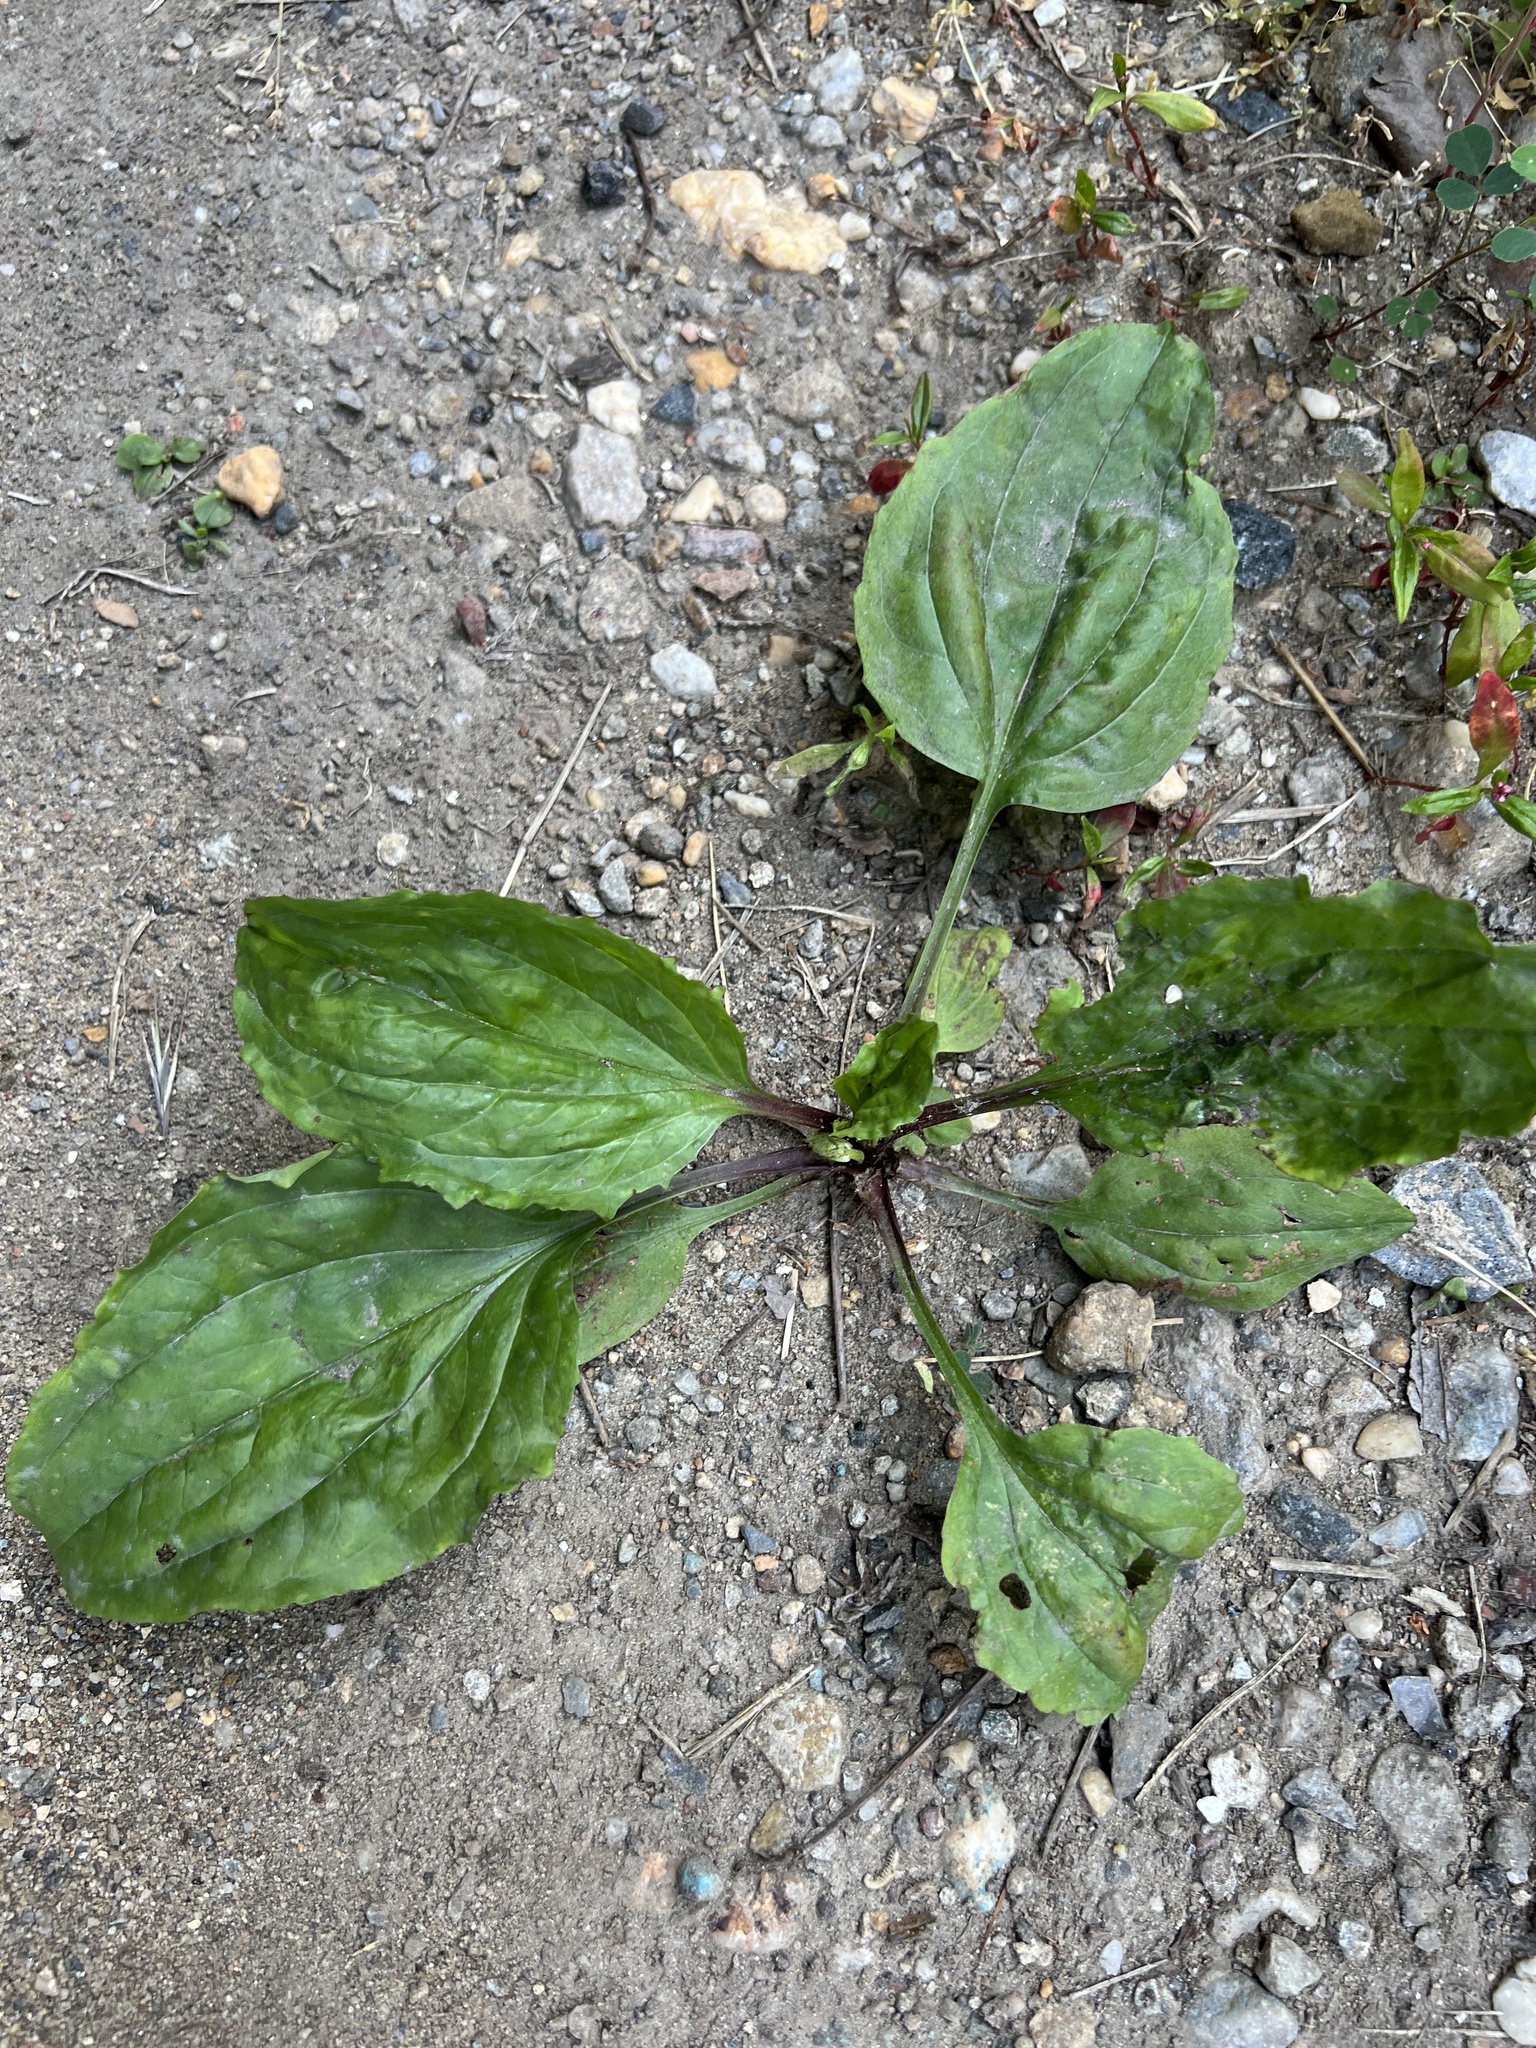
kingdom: Plantae
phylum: Tracheophyta
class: Magnoliopsida
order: Lamiales
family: Plantaginaceae
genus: Plantago
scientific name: Plantago rugelii
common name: American plantain
